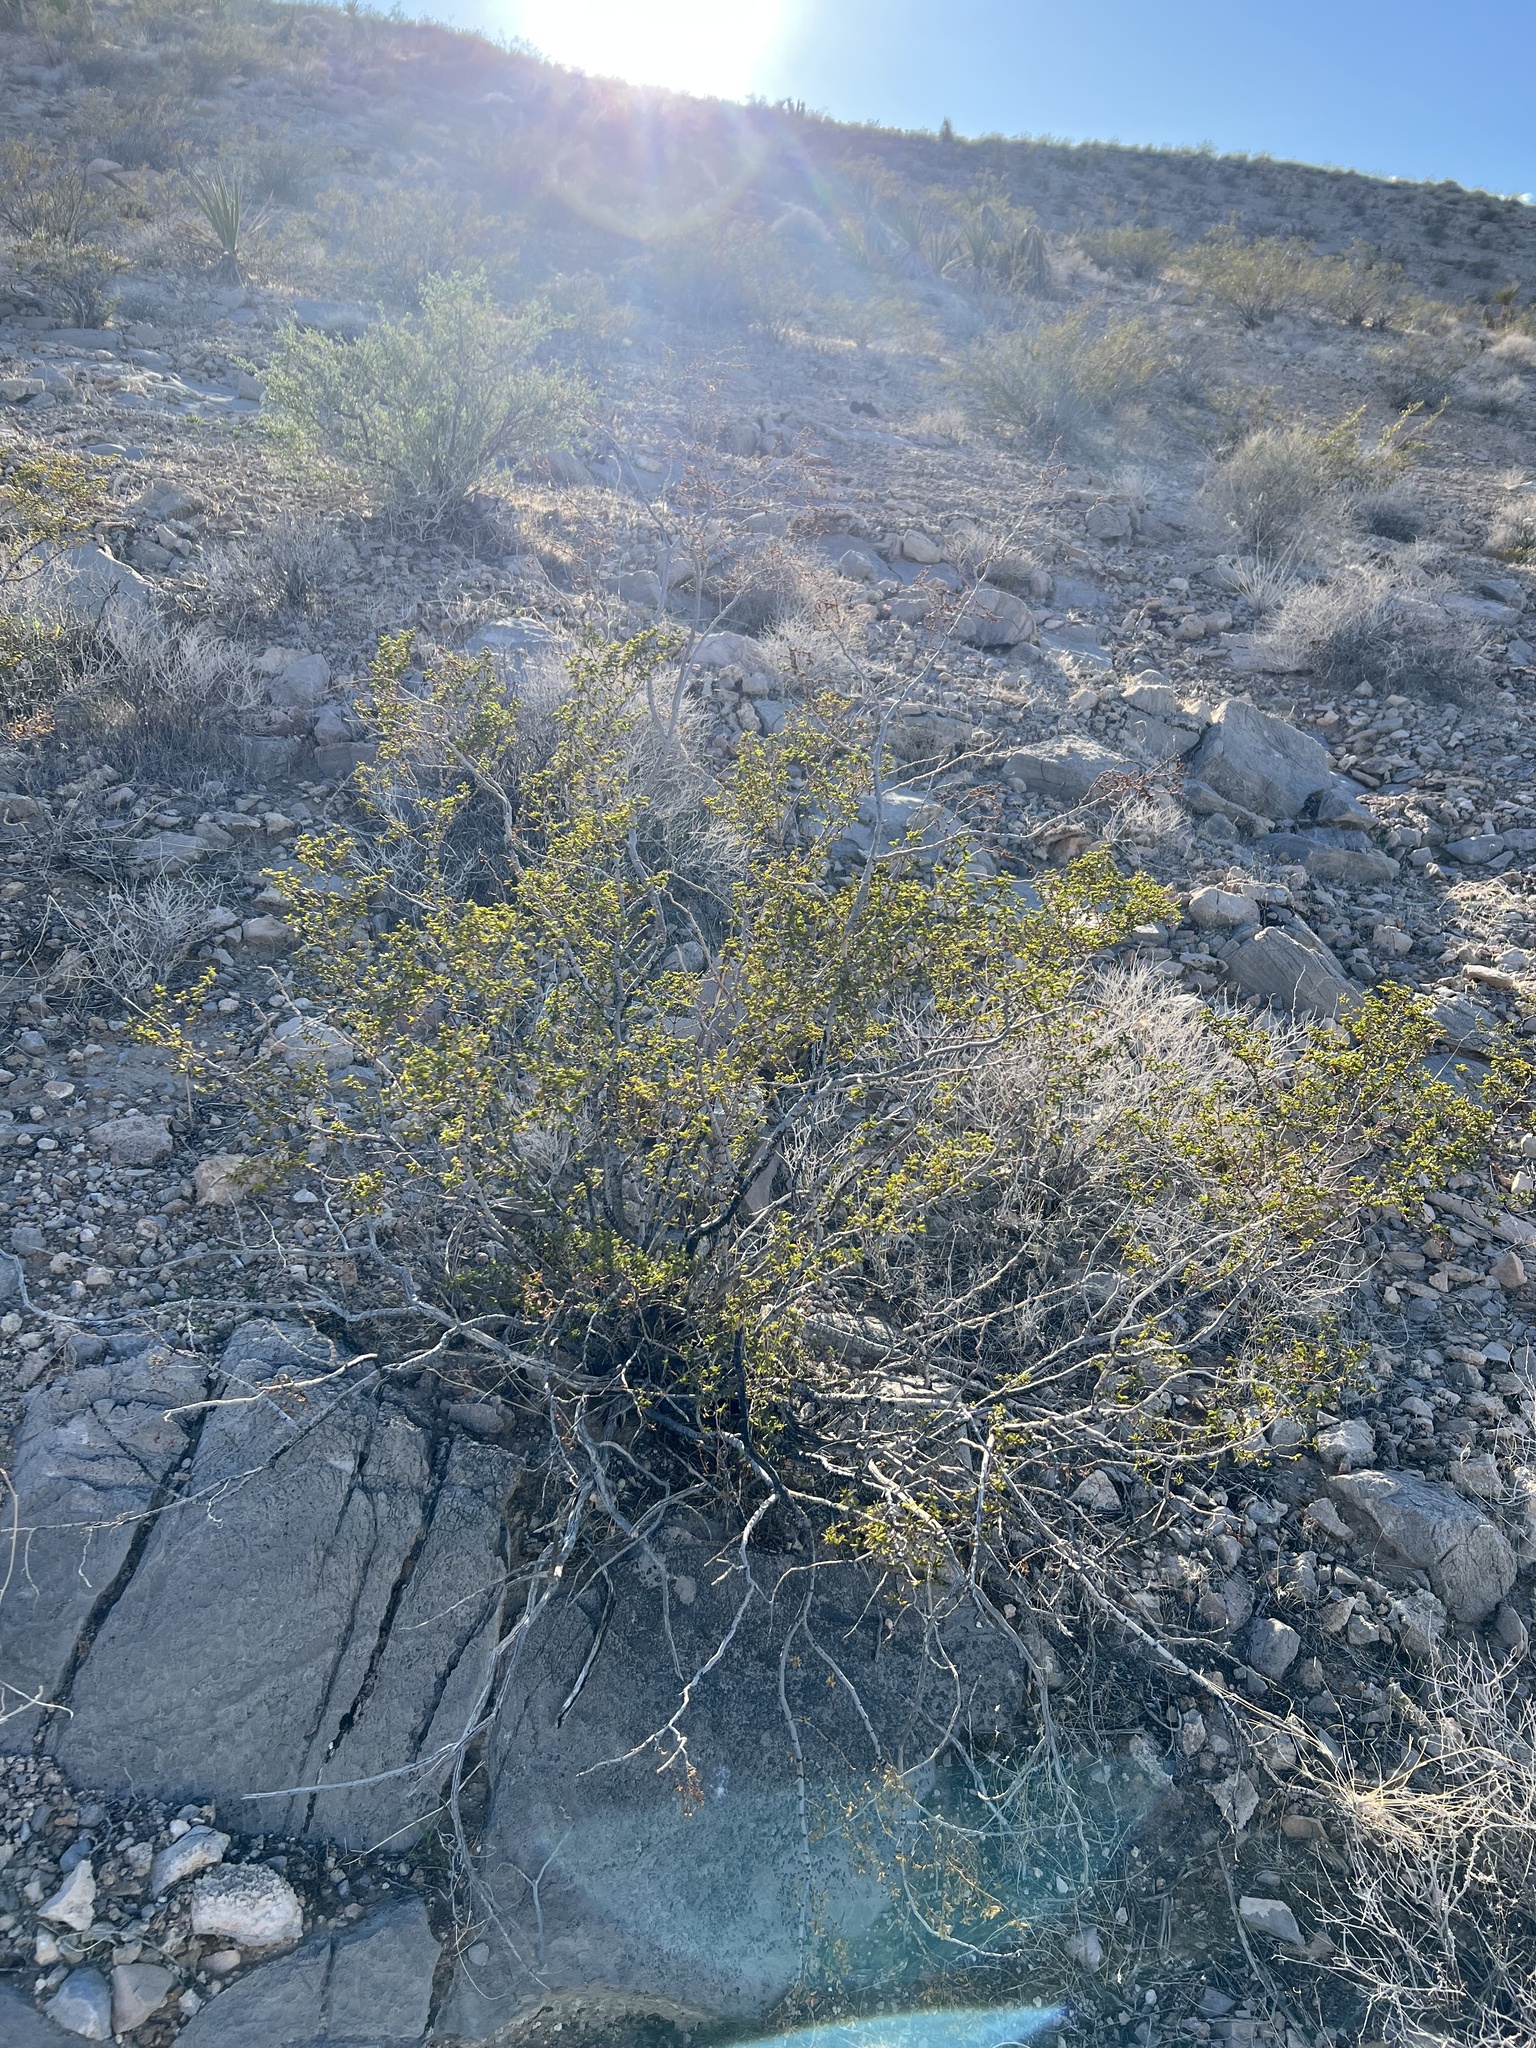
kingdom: Plantae
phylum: Tracheophyta
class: Magnoliopsida
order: Zygophyllales
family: Zygophyllaceae
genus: Larrea
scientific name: Larrea tridentata
